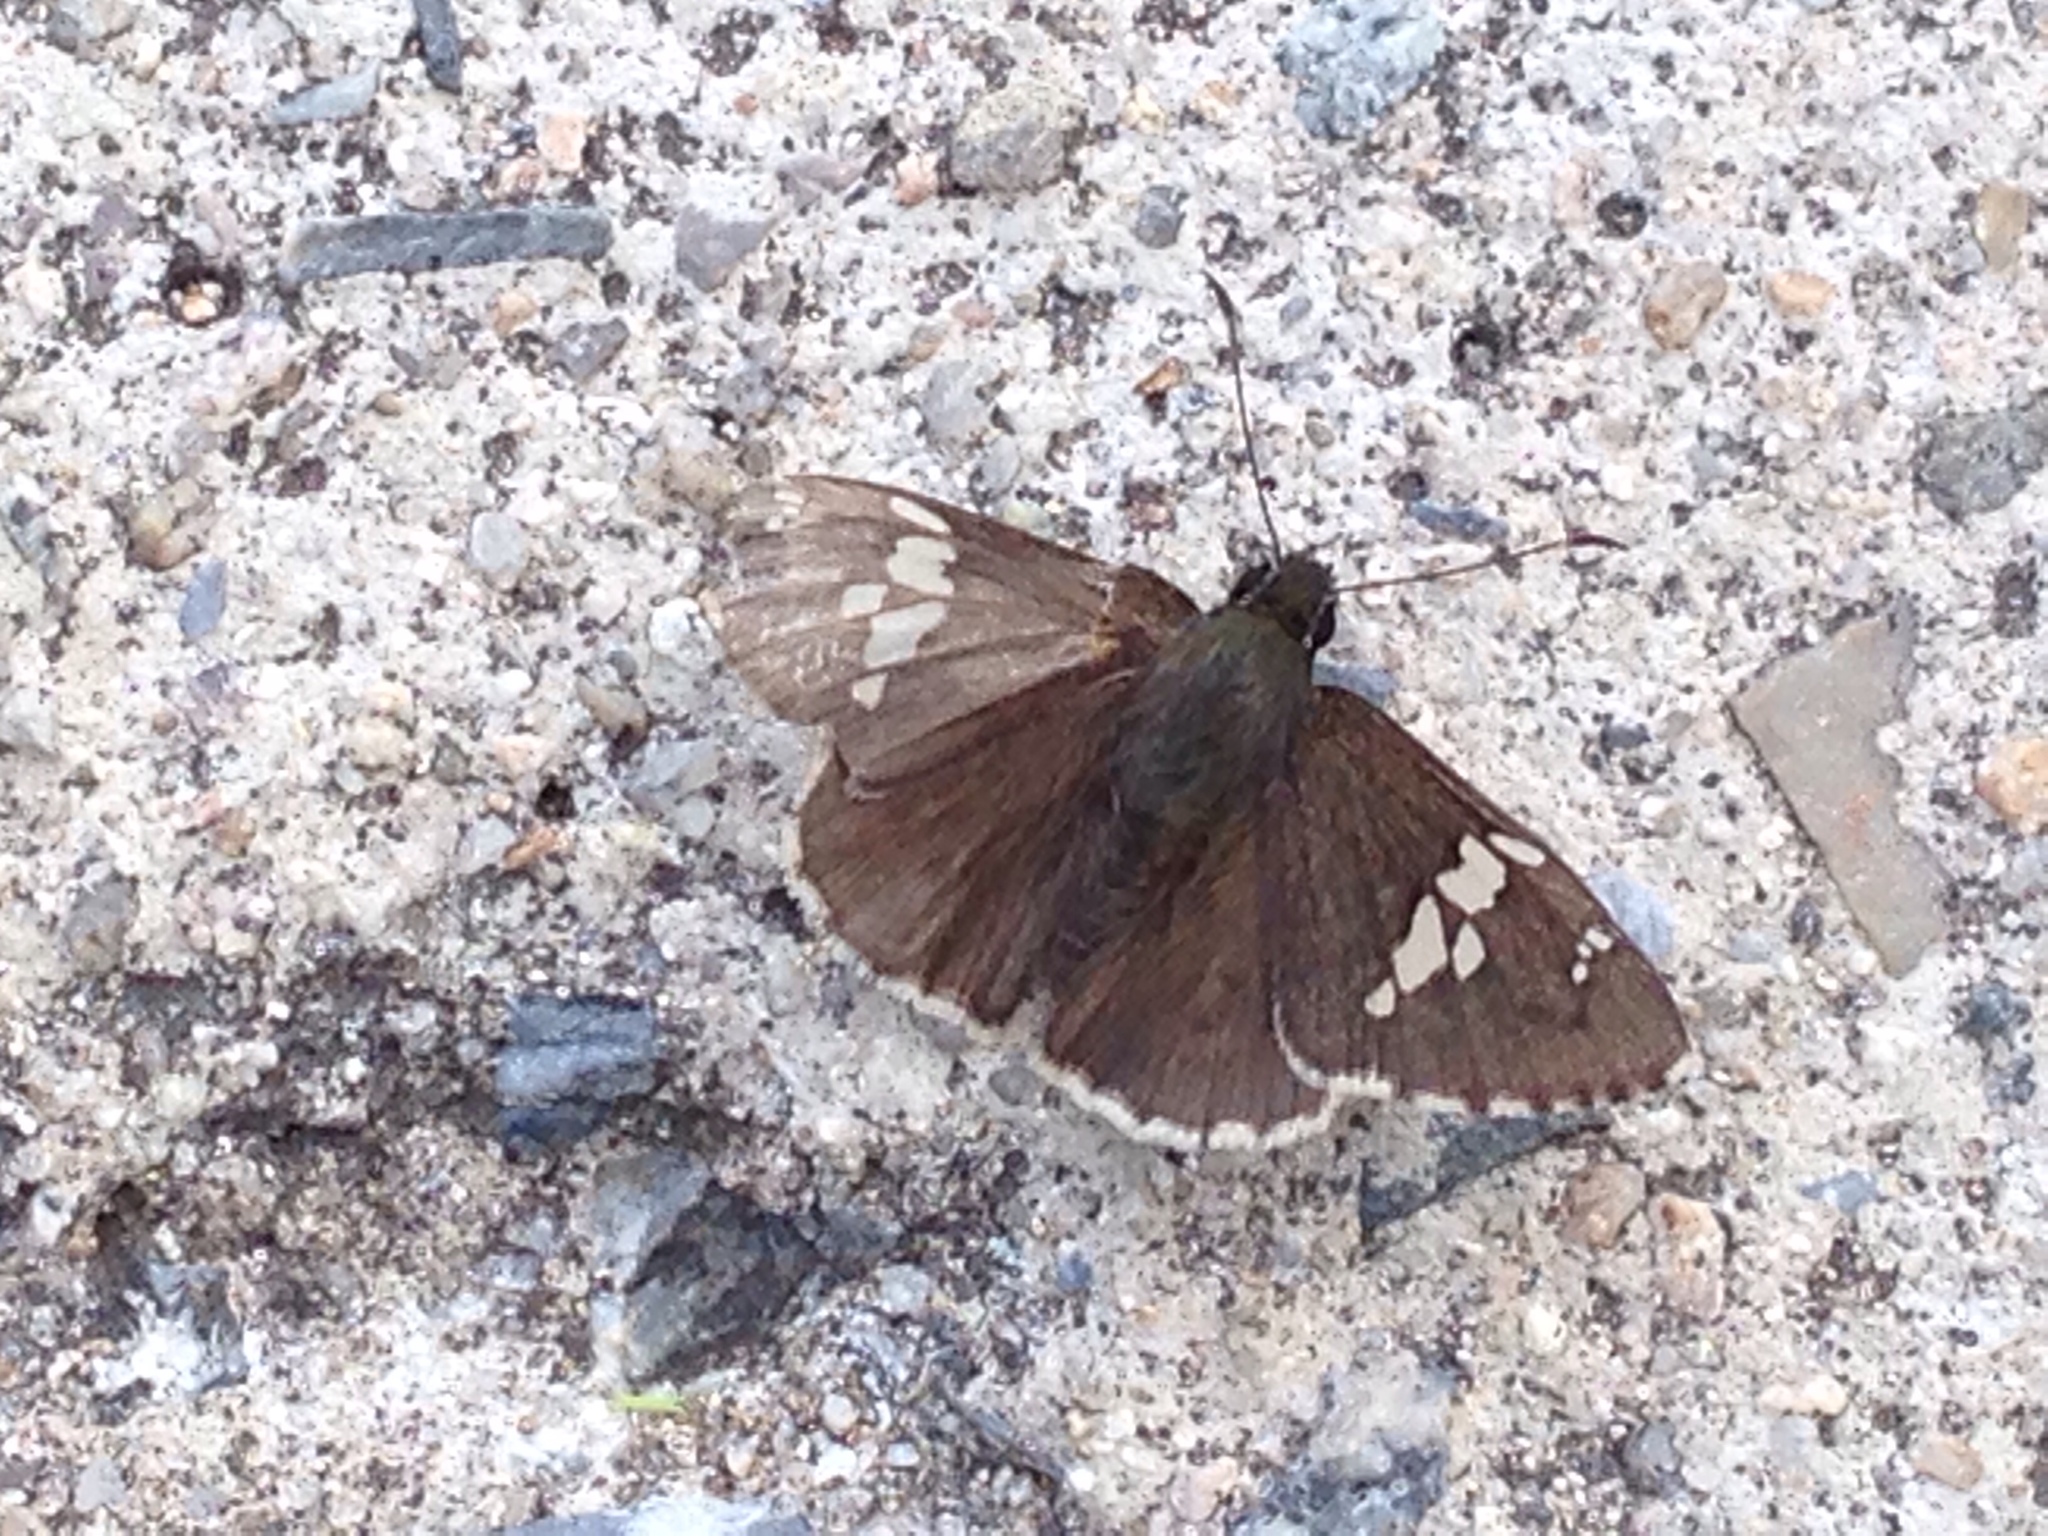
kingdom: Animalia
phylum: Arthropoda
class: Insecta
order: Lepidoptera
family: Hesperiidae
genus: Lobocla
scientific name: Lobocla bifasciatus
